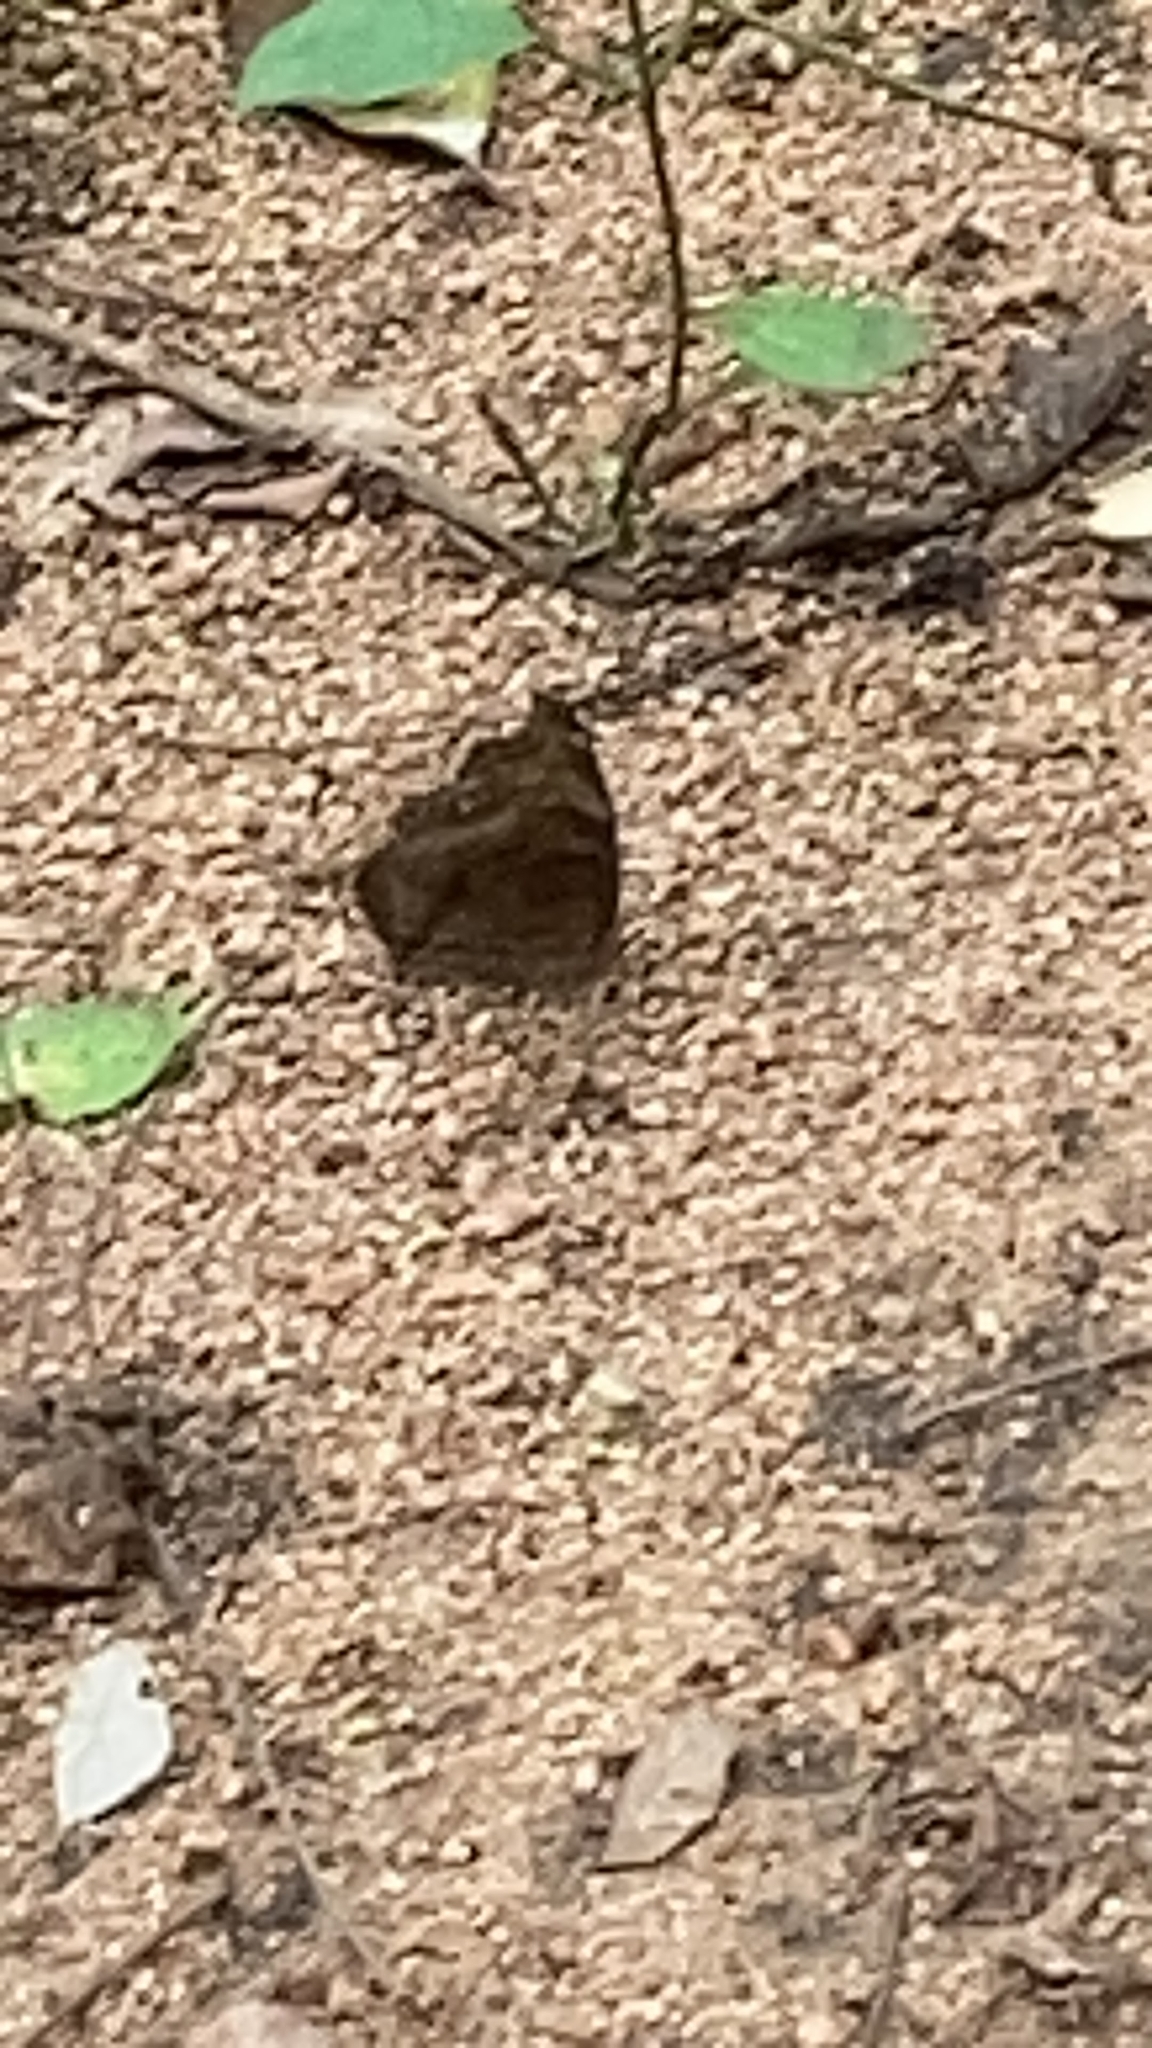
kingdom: Animalia
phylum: Arthropoda
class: Insecta
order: Lepidoptera
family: Nymphalidae
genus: Junonia
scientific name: Junonia iphita
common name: Chocolate pansy
